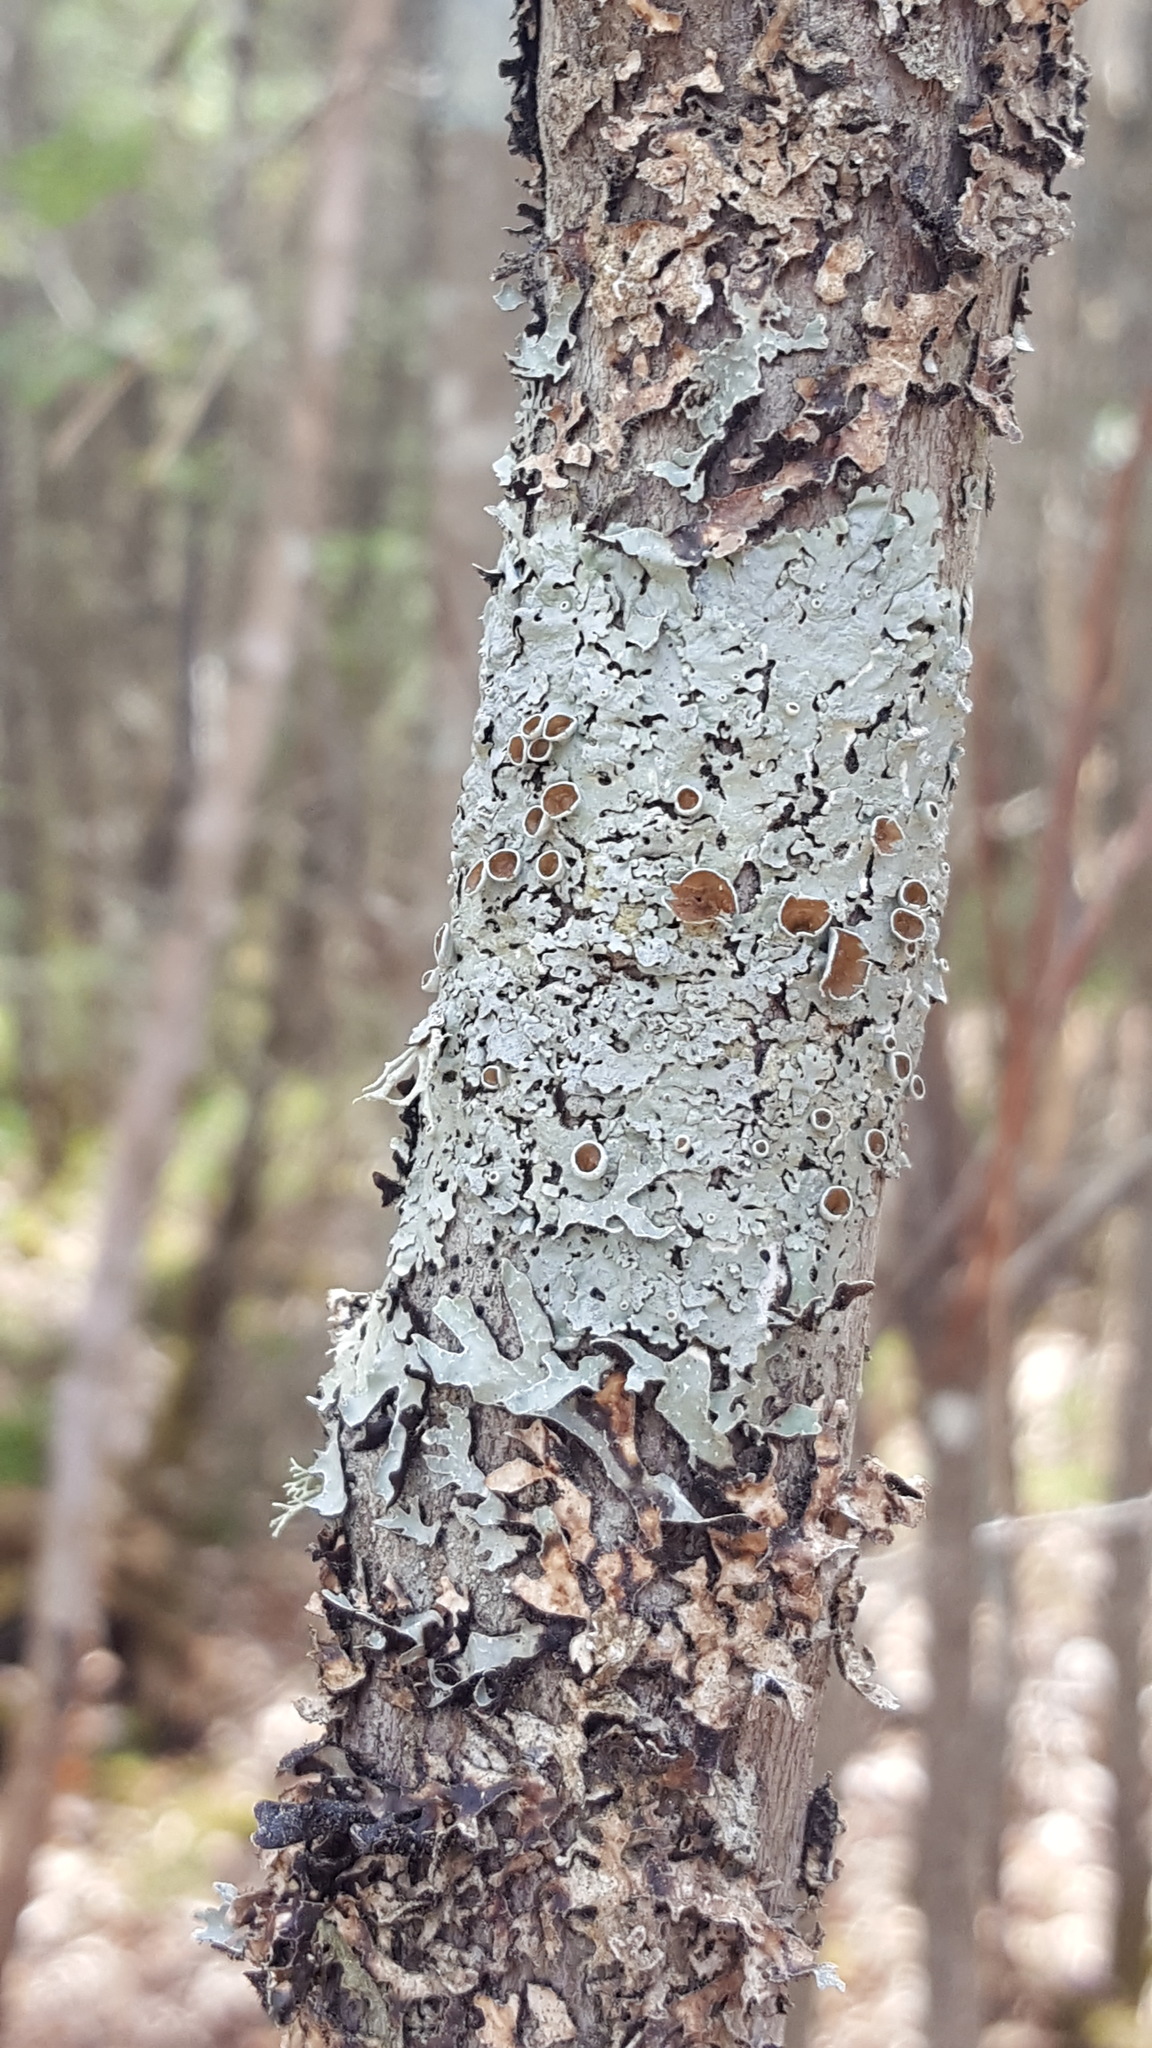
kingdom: Fungi
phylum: Ascomycota
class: Lecanoromycetes
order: Lecanorales
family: Parmeliaceae
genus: Myelochroa
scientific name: Myelochroa galbina
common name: Smooth axil-bristle lichen
